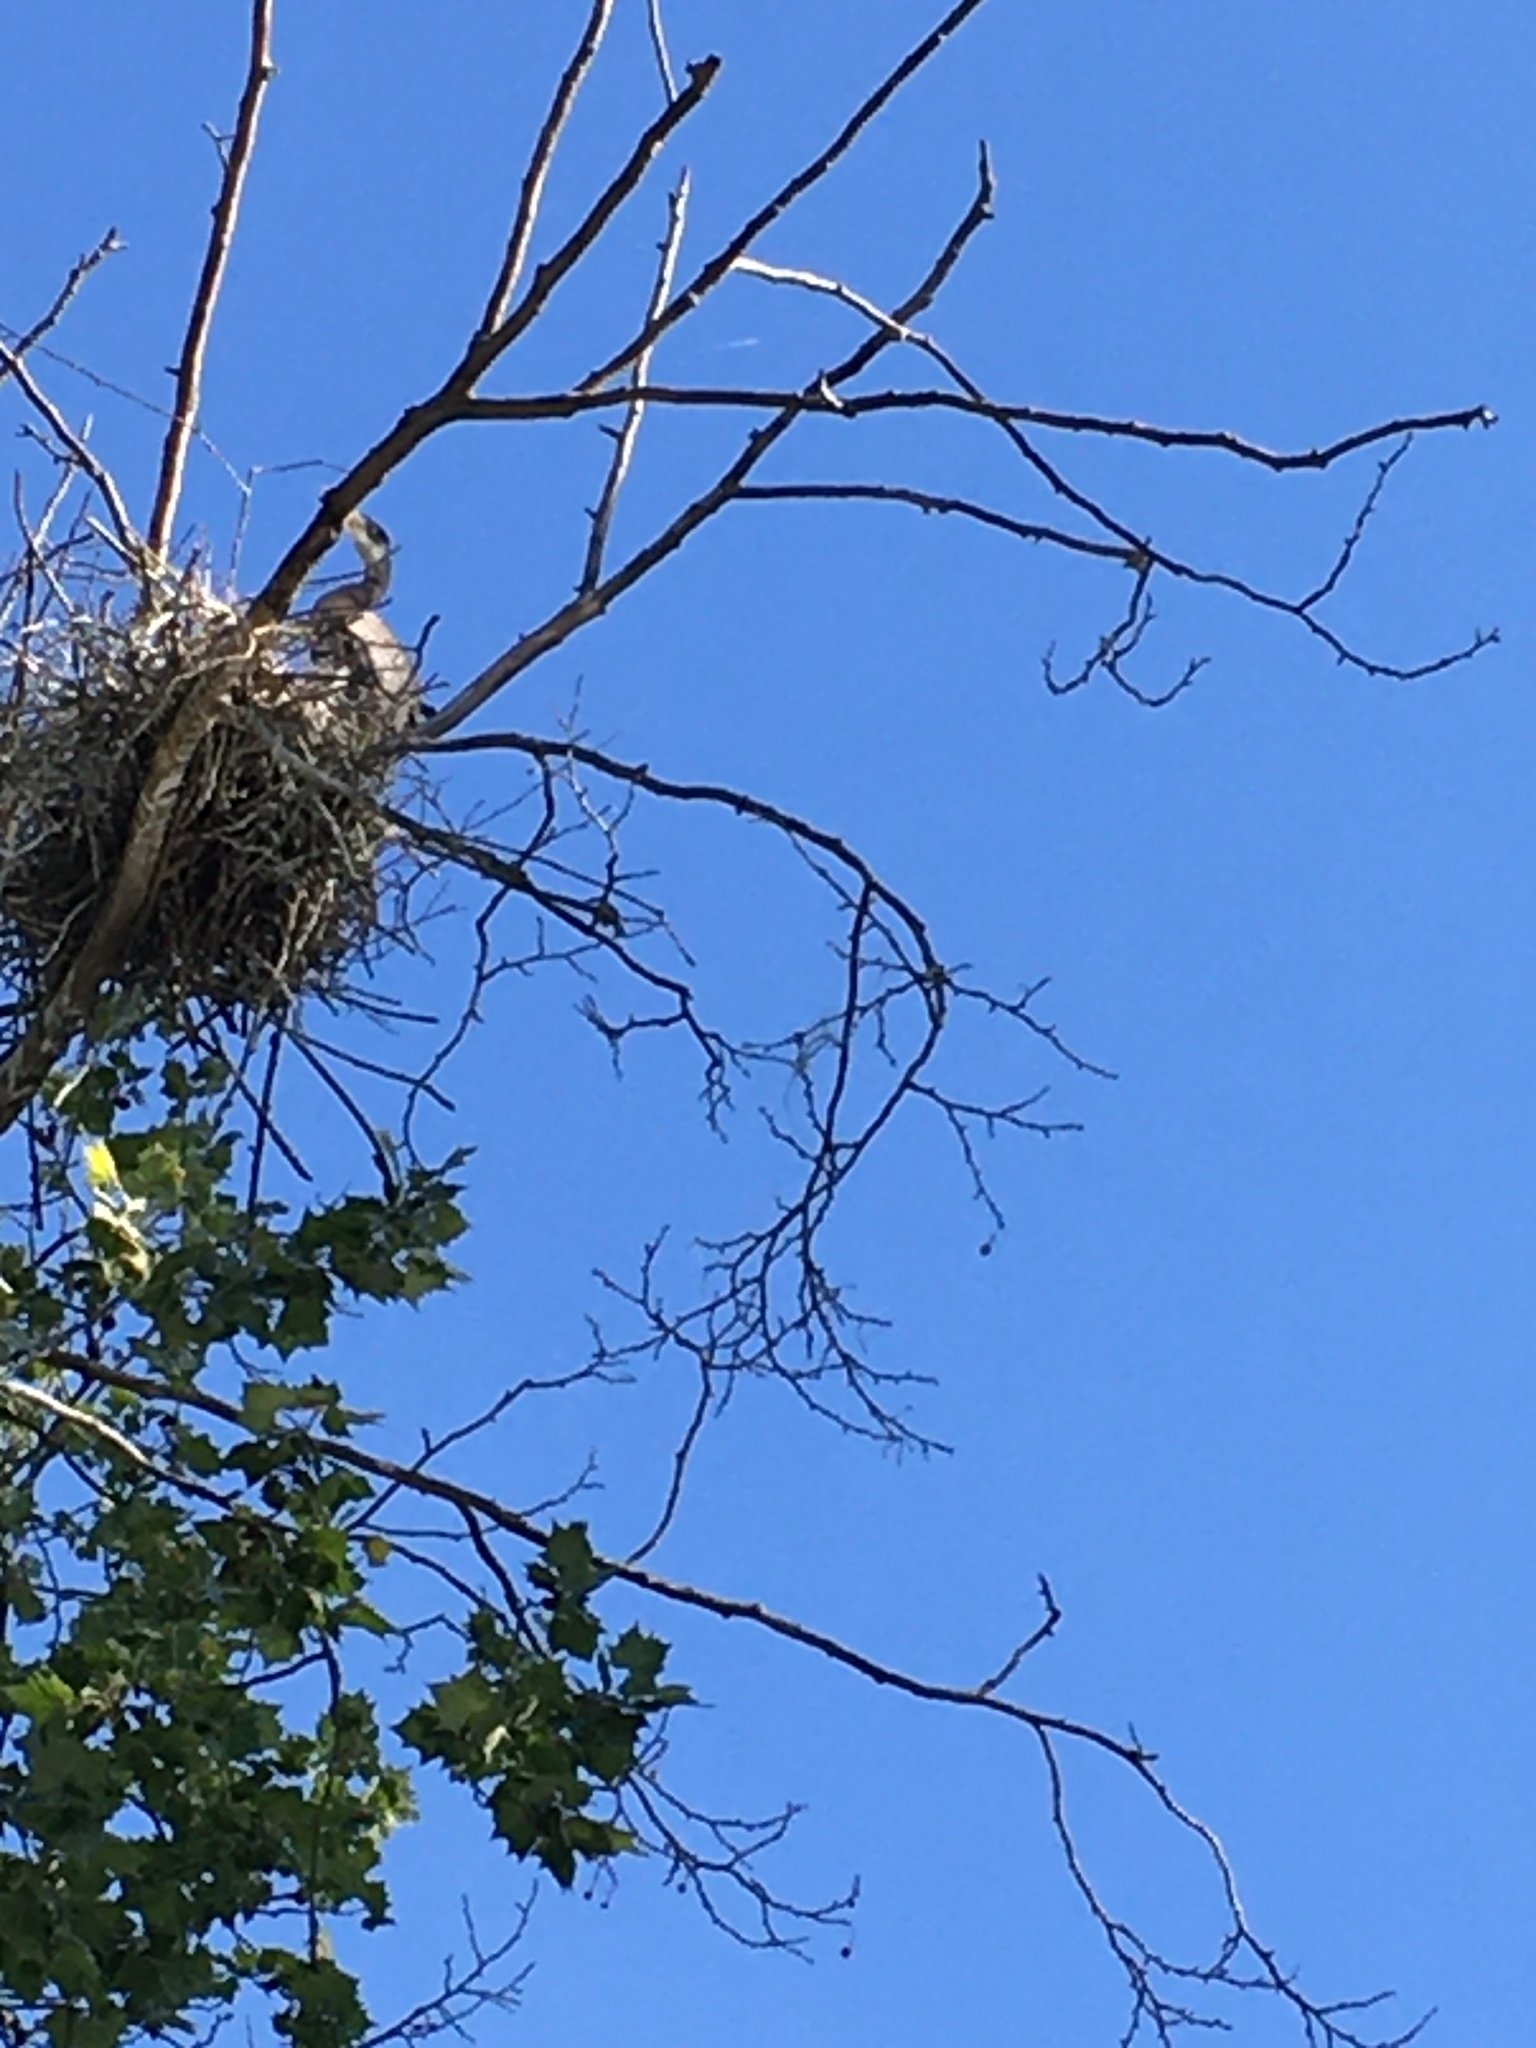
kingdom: Animalia
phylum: Chordata
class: Aves
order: Pelecaniformes
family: Ardeidae
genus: Ardea
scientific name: Ardea herodias
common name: Great blue heron
